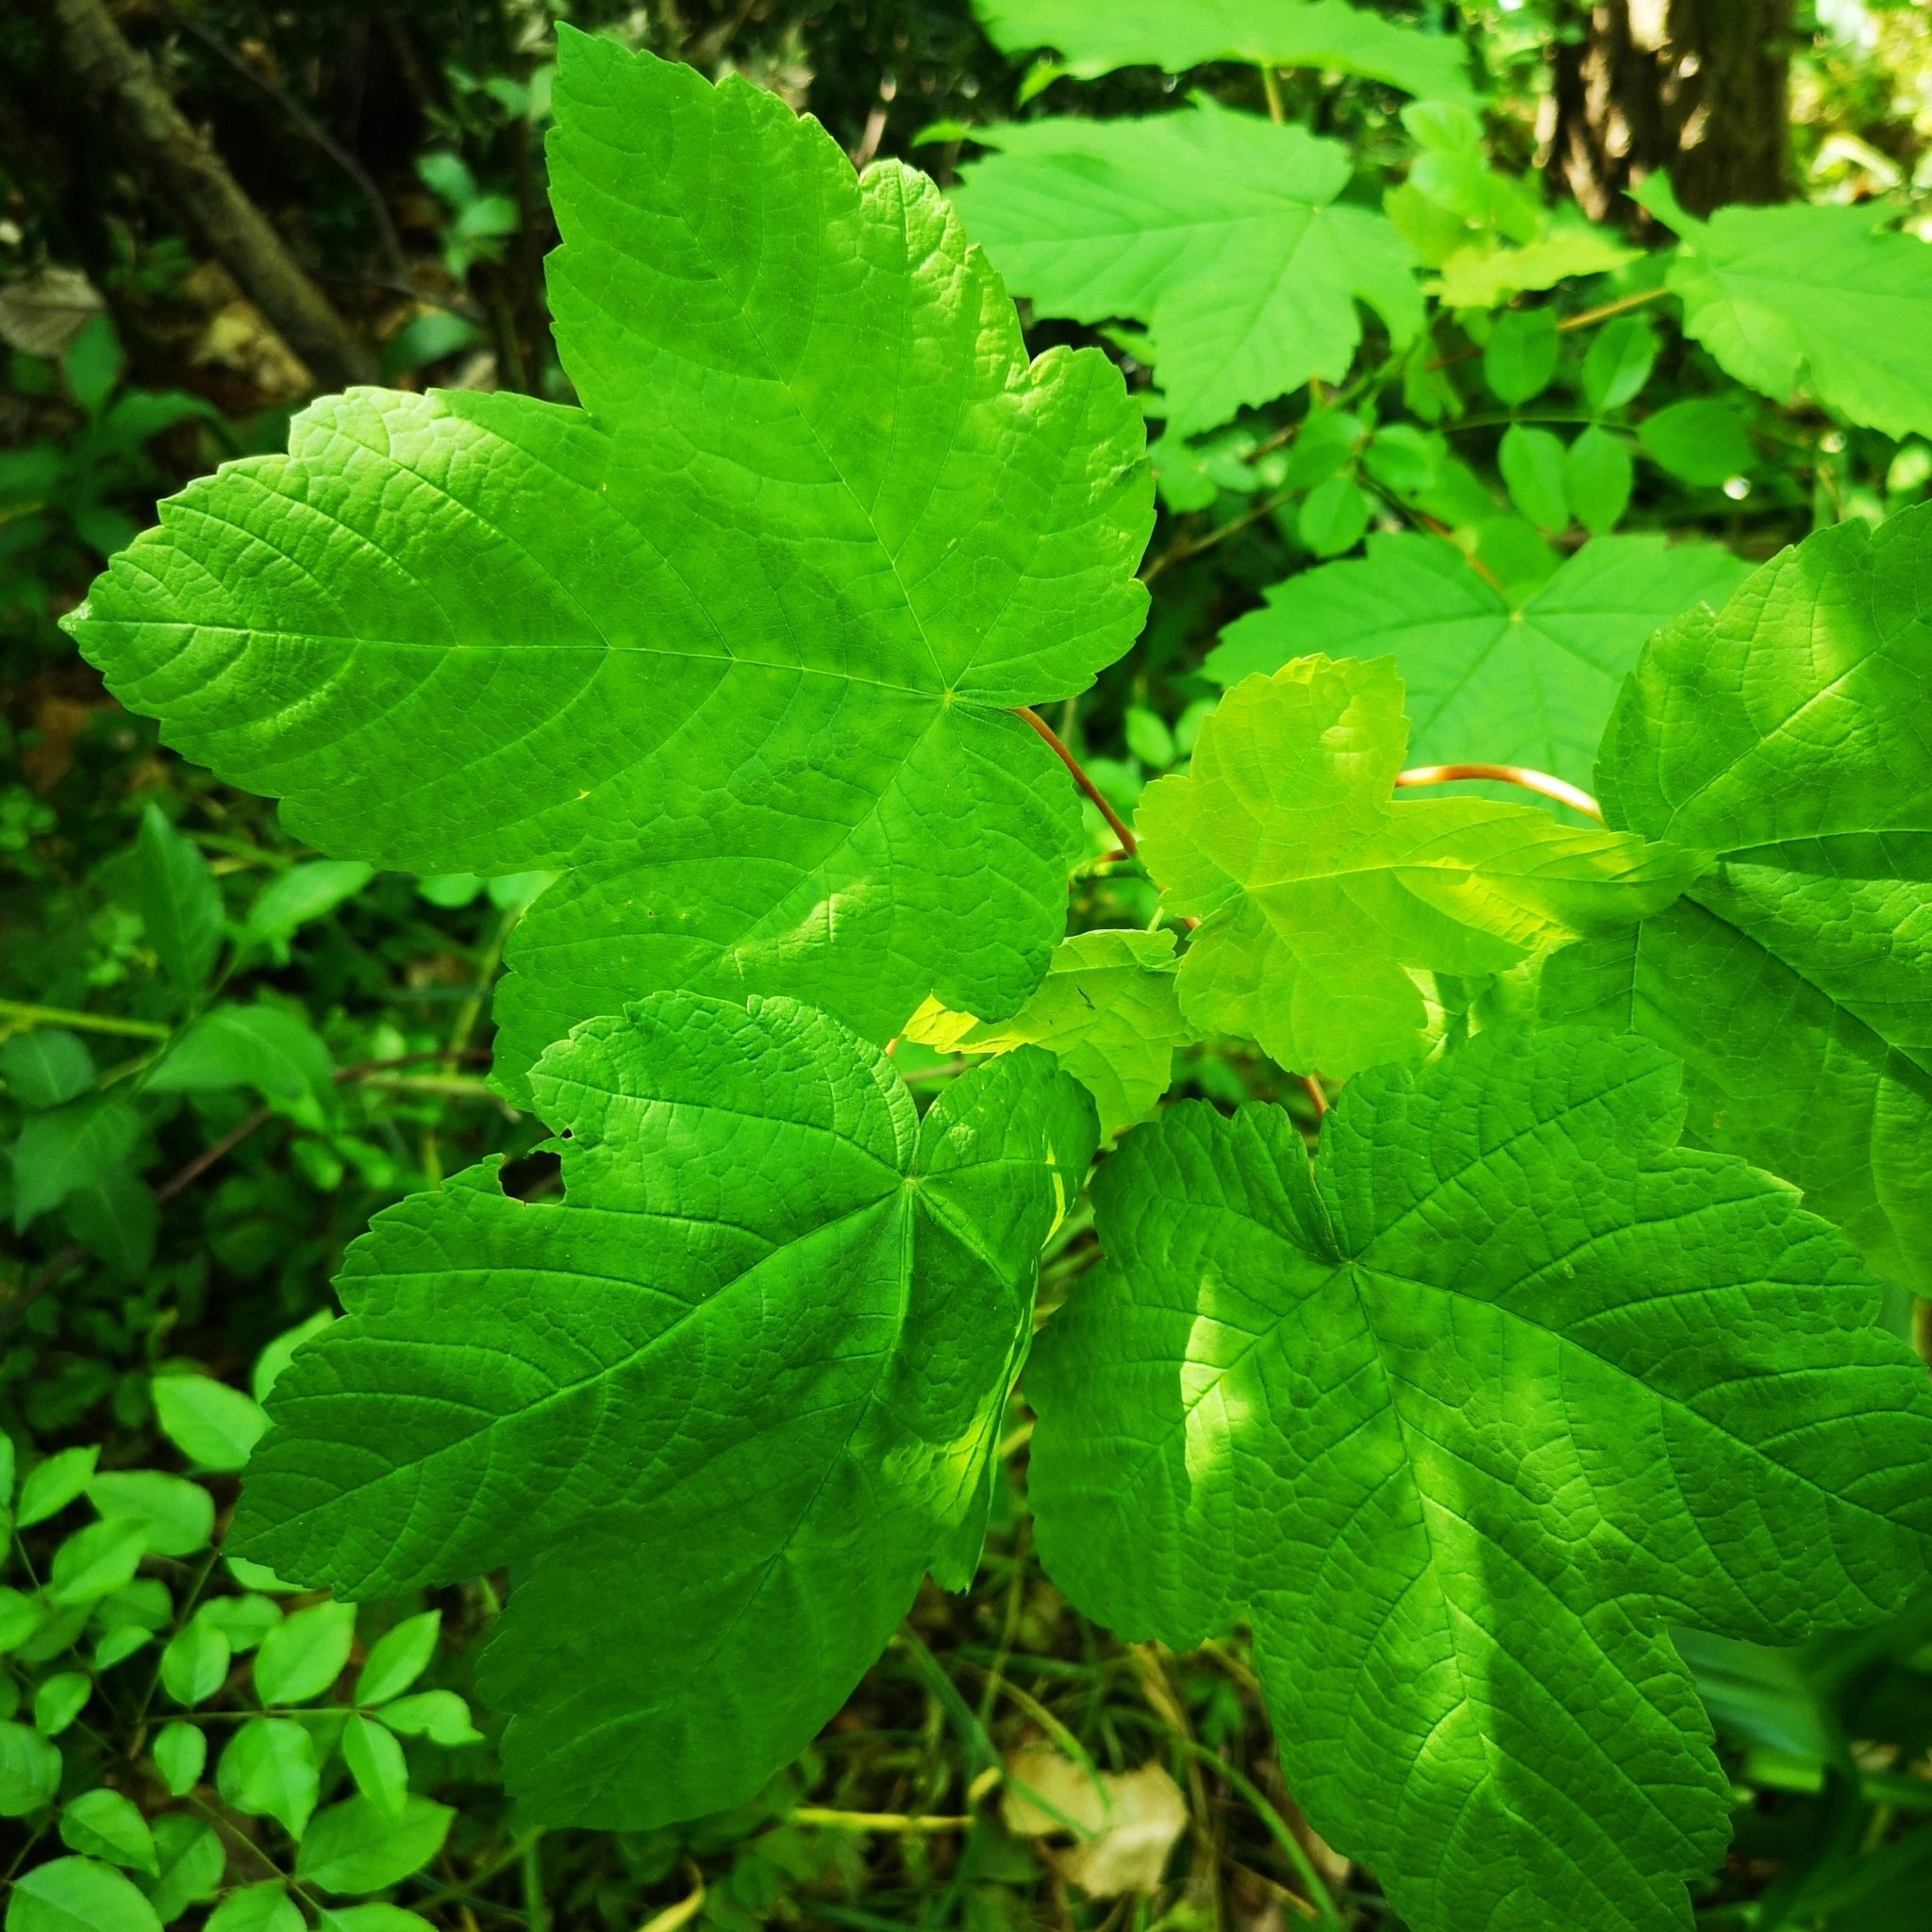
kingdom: Plantae
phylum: Tracheophyta
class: Magnoliopsida
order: Sapindales
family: Sapindaceae
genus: Acer
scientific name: Acer pseudoplatanus
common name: Sycamore
